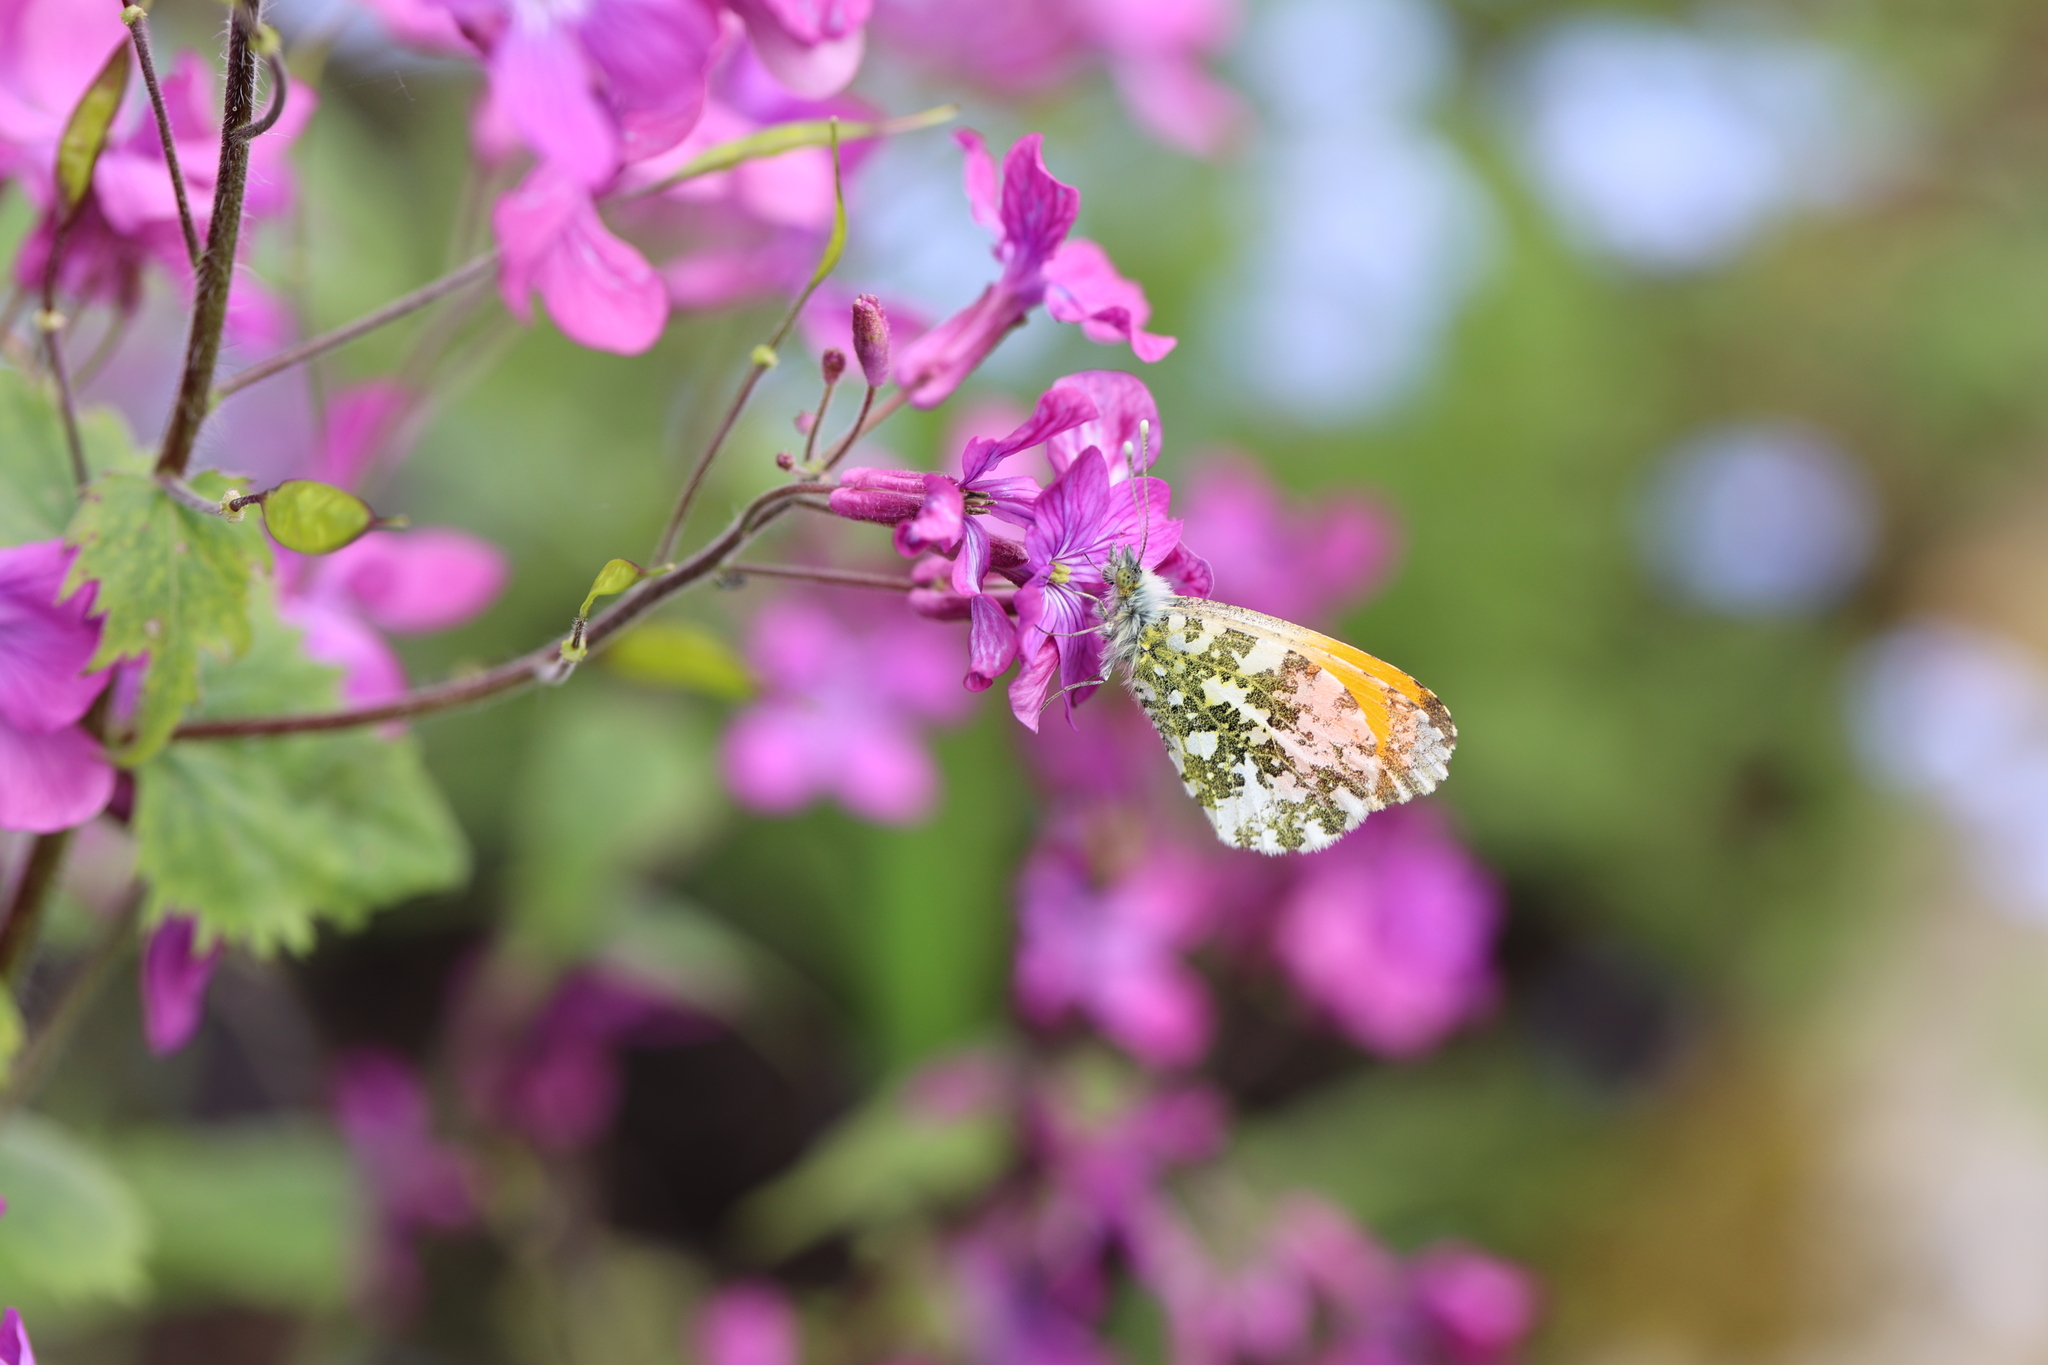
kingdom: Animalia
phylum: Arthropoda
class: Insecta
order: Lepidoptera
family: Pieridae
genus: Anthocharis
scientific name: Anthocharis cardamines
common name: Orange-tip
